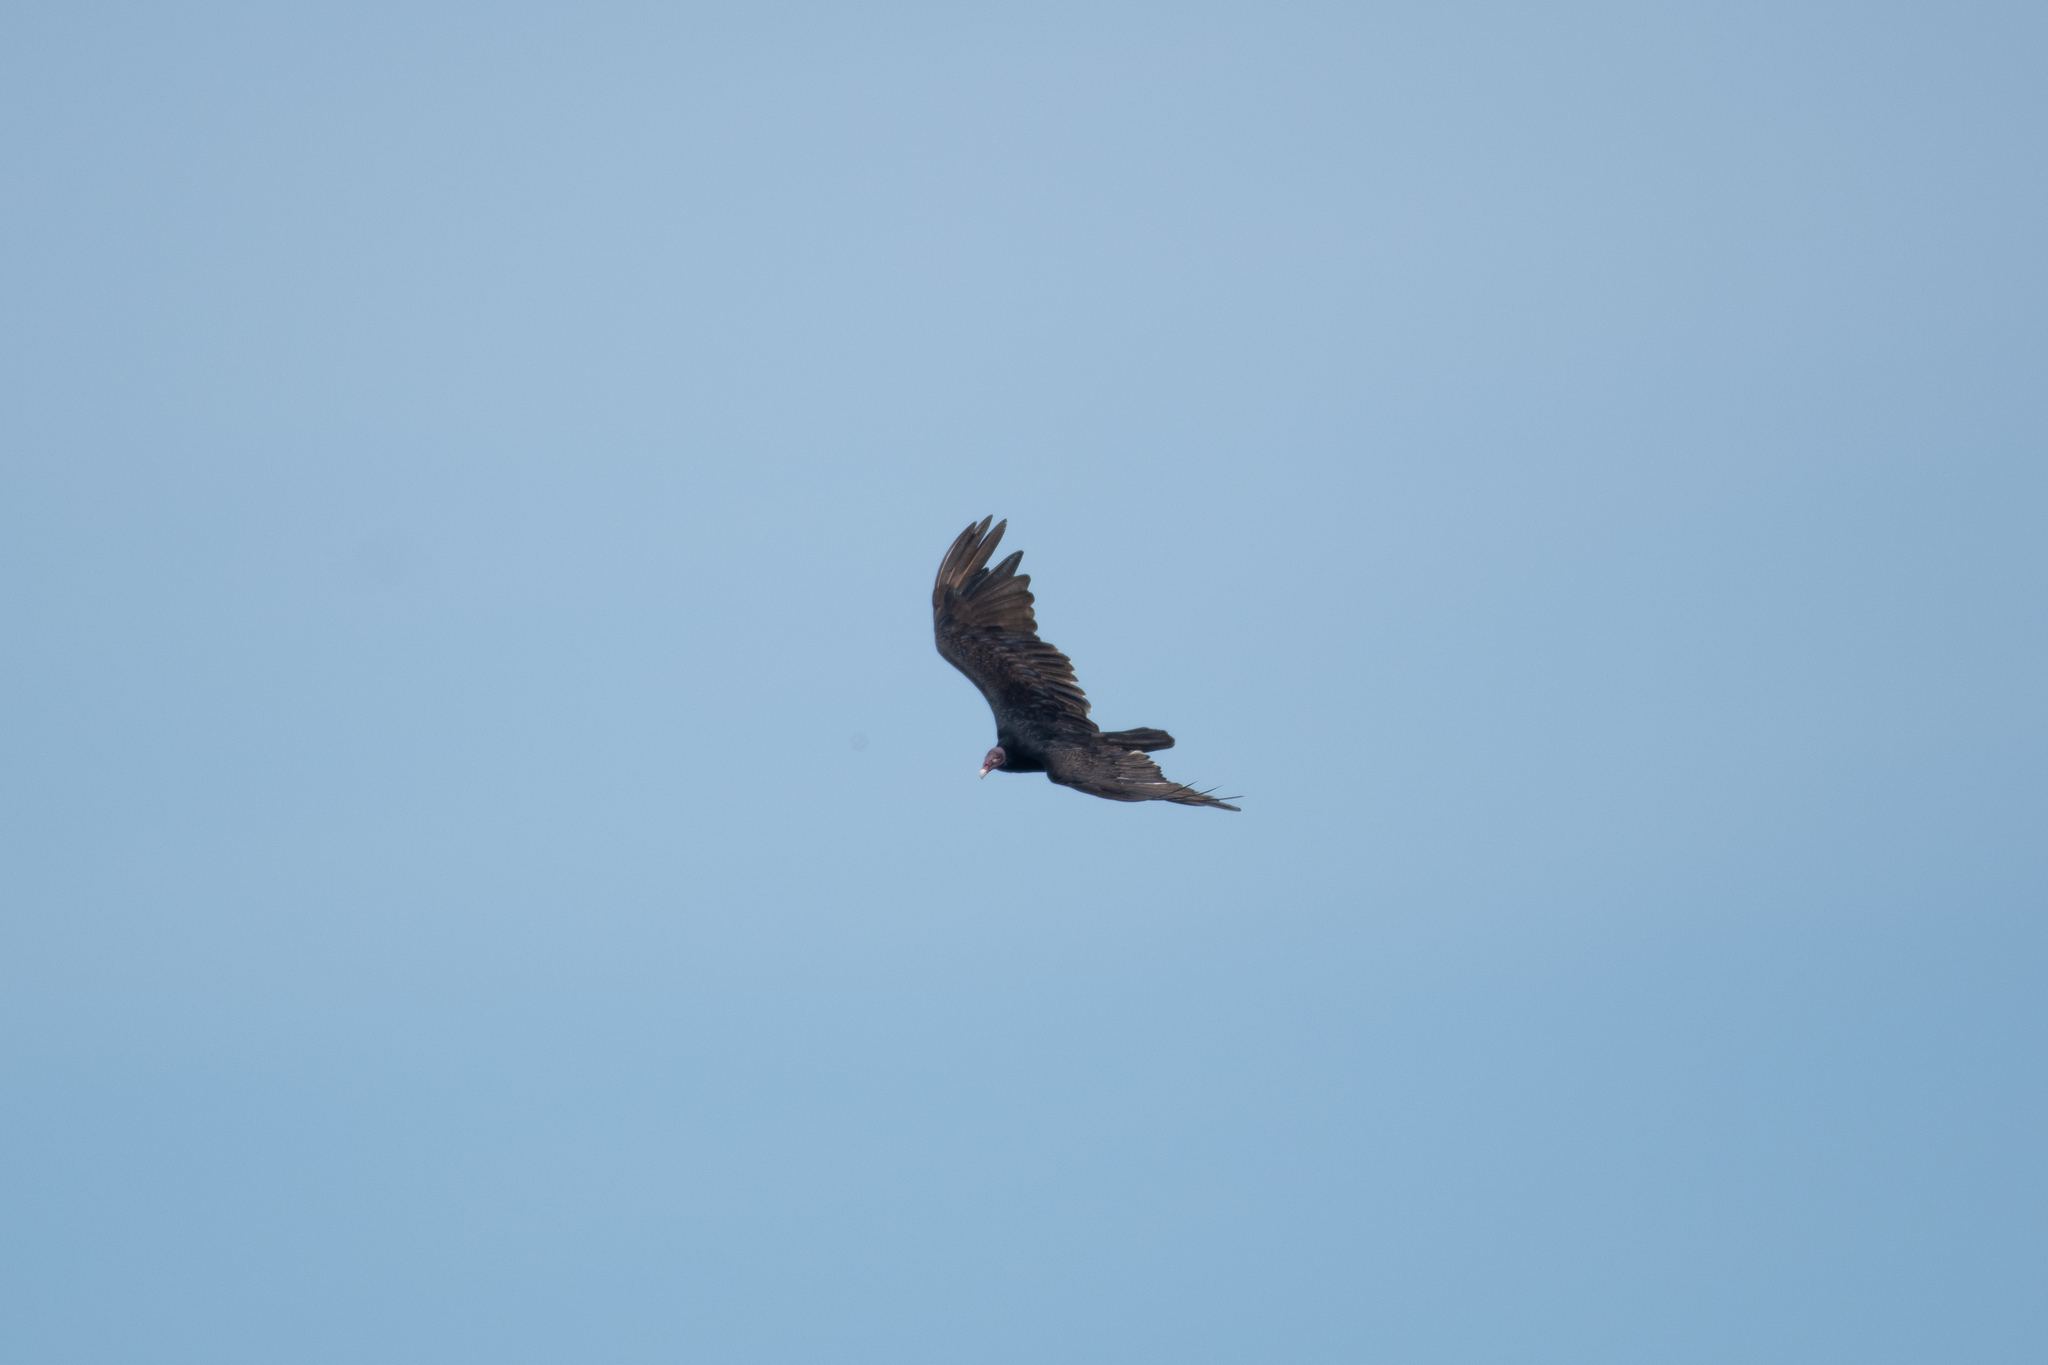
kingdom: Animalia
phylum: Chordata
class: Aves
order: Accipitriformes
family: Cathartidae
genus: Cathartes
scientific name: Cathartes aura
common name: Turkey vulture
